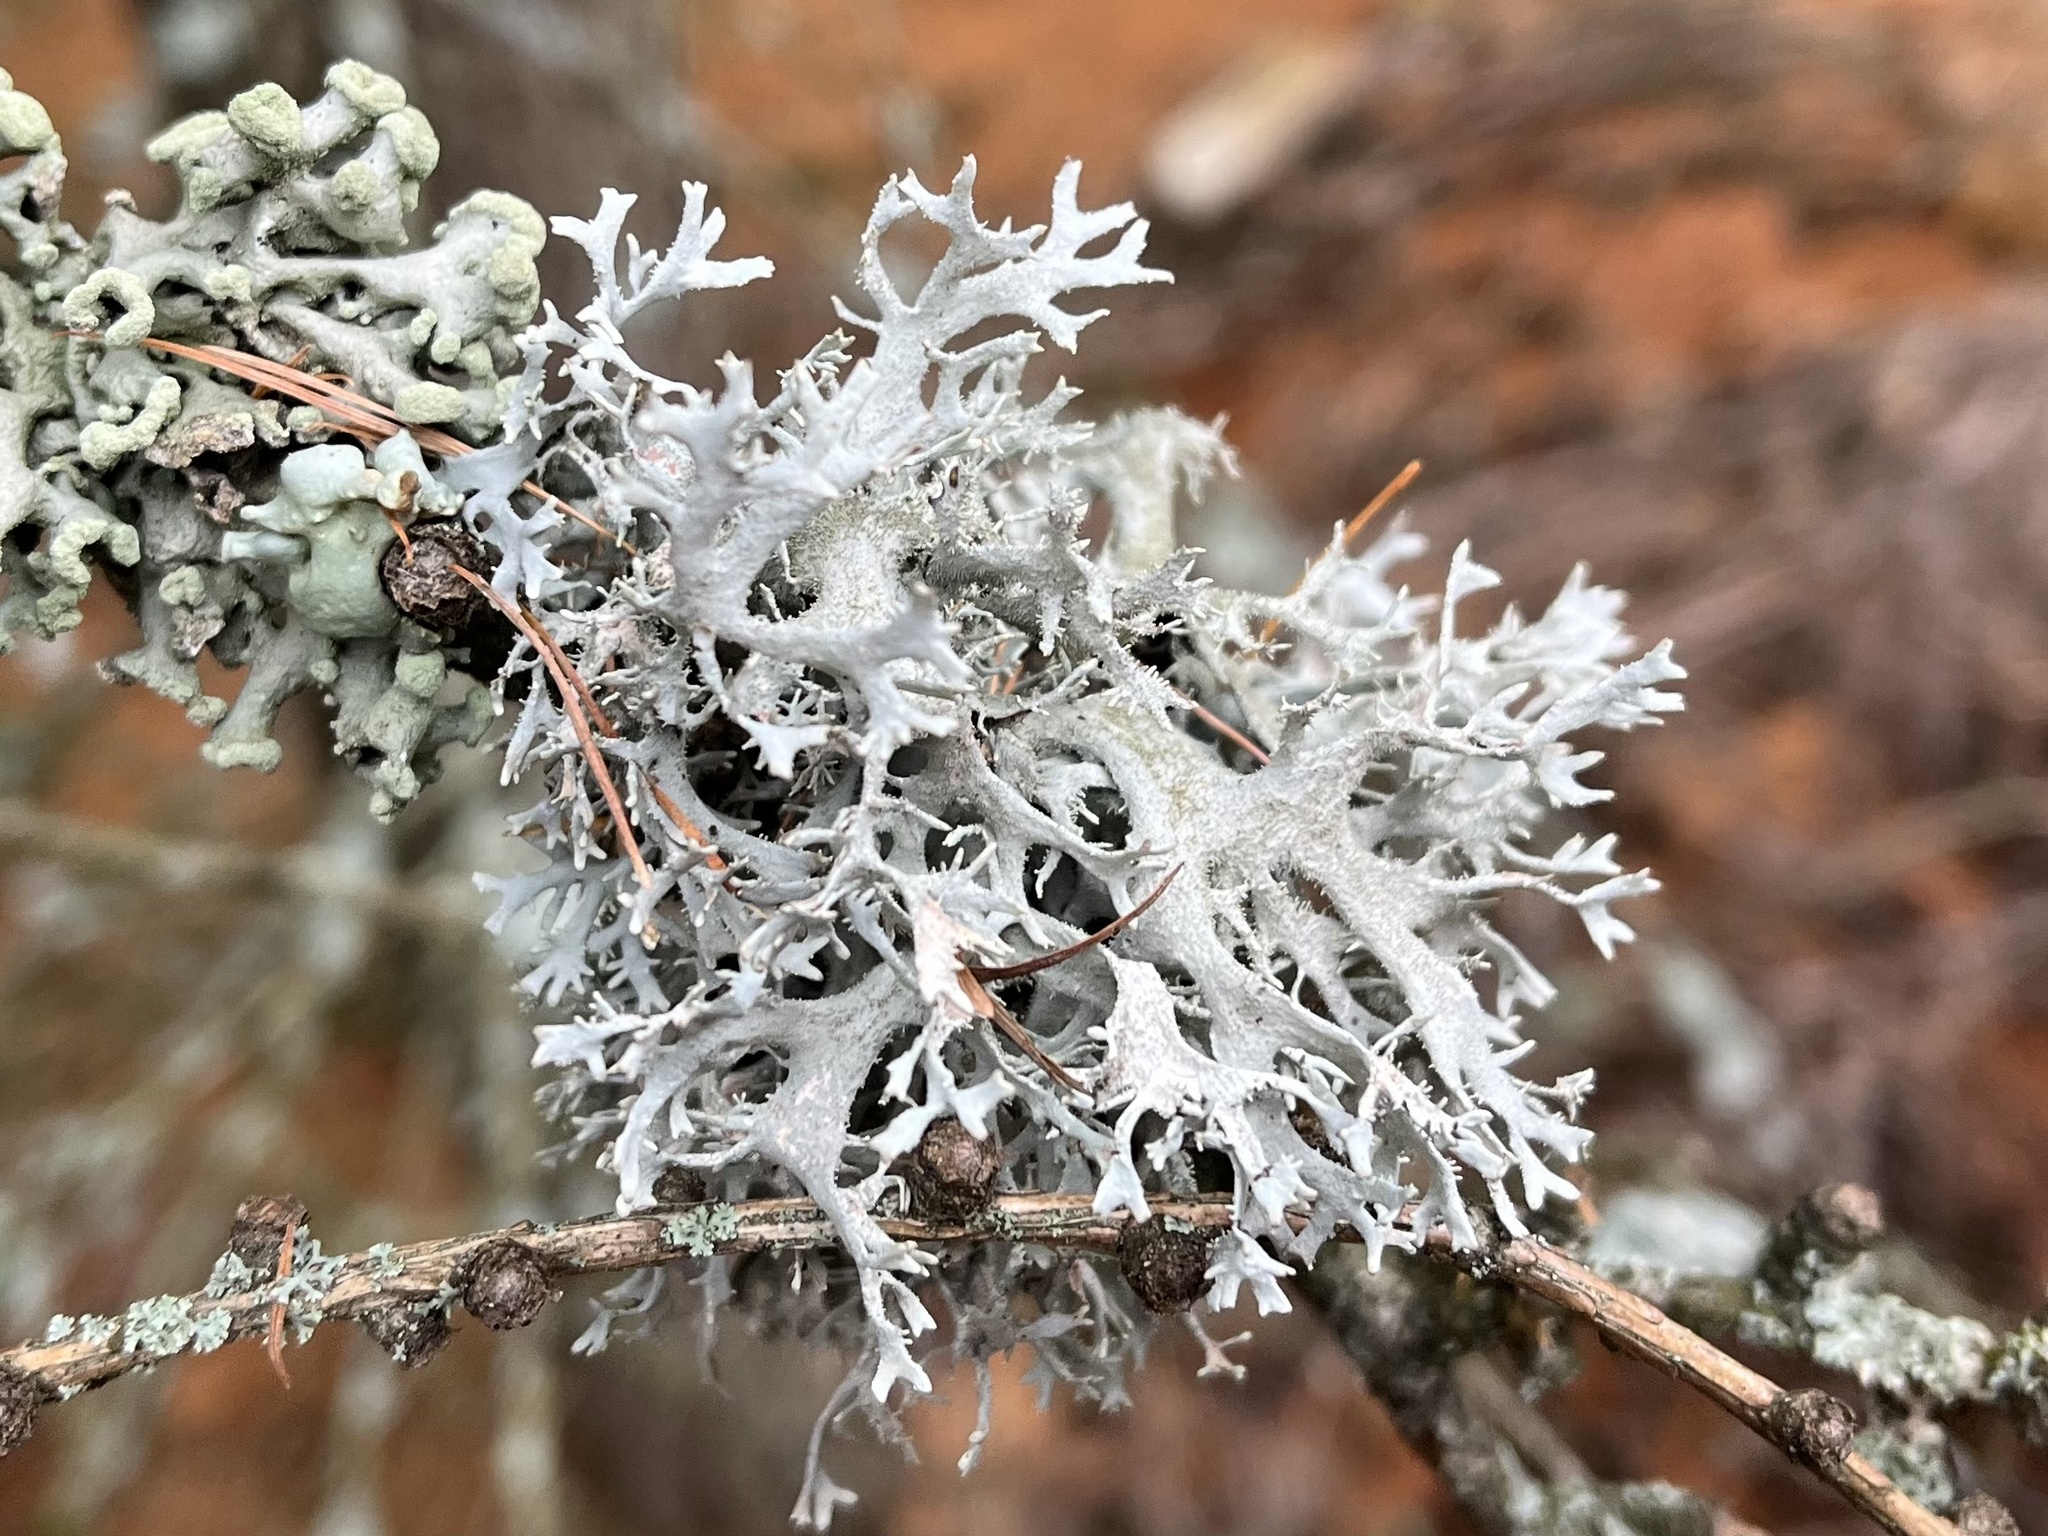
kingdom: Fungi
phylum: Ascomycota
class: Lecanoromycetes
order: Lecanorales
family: Parmeliaceae
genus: Pseudevernia
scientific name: Pseudevernia furfuracea
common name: Tree moss
